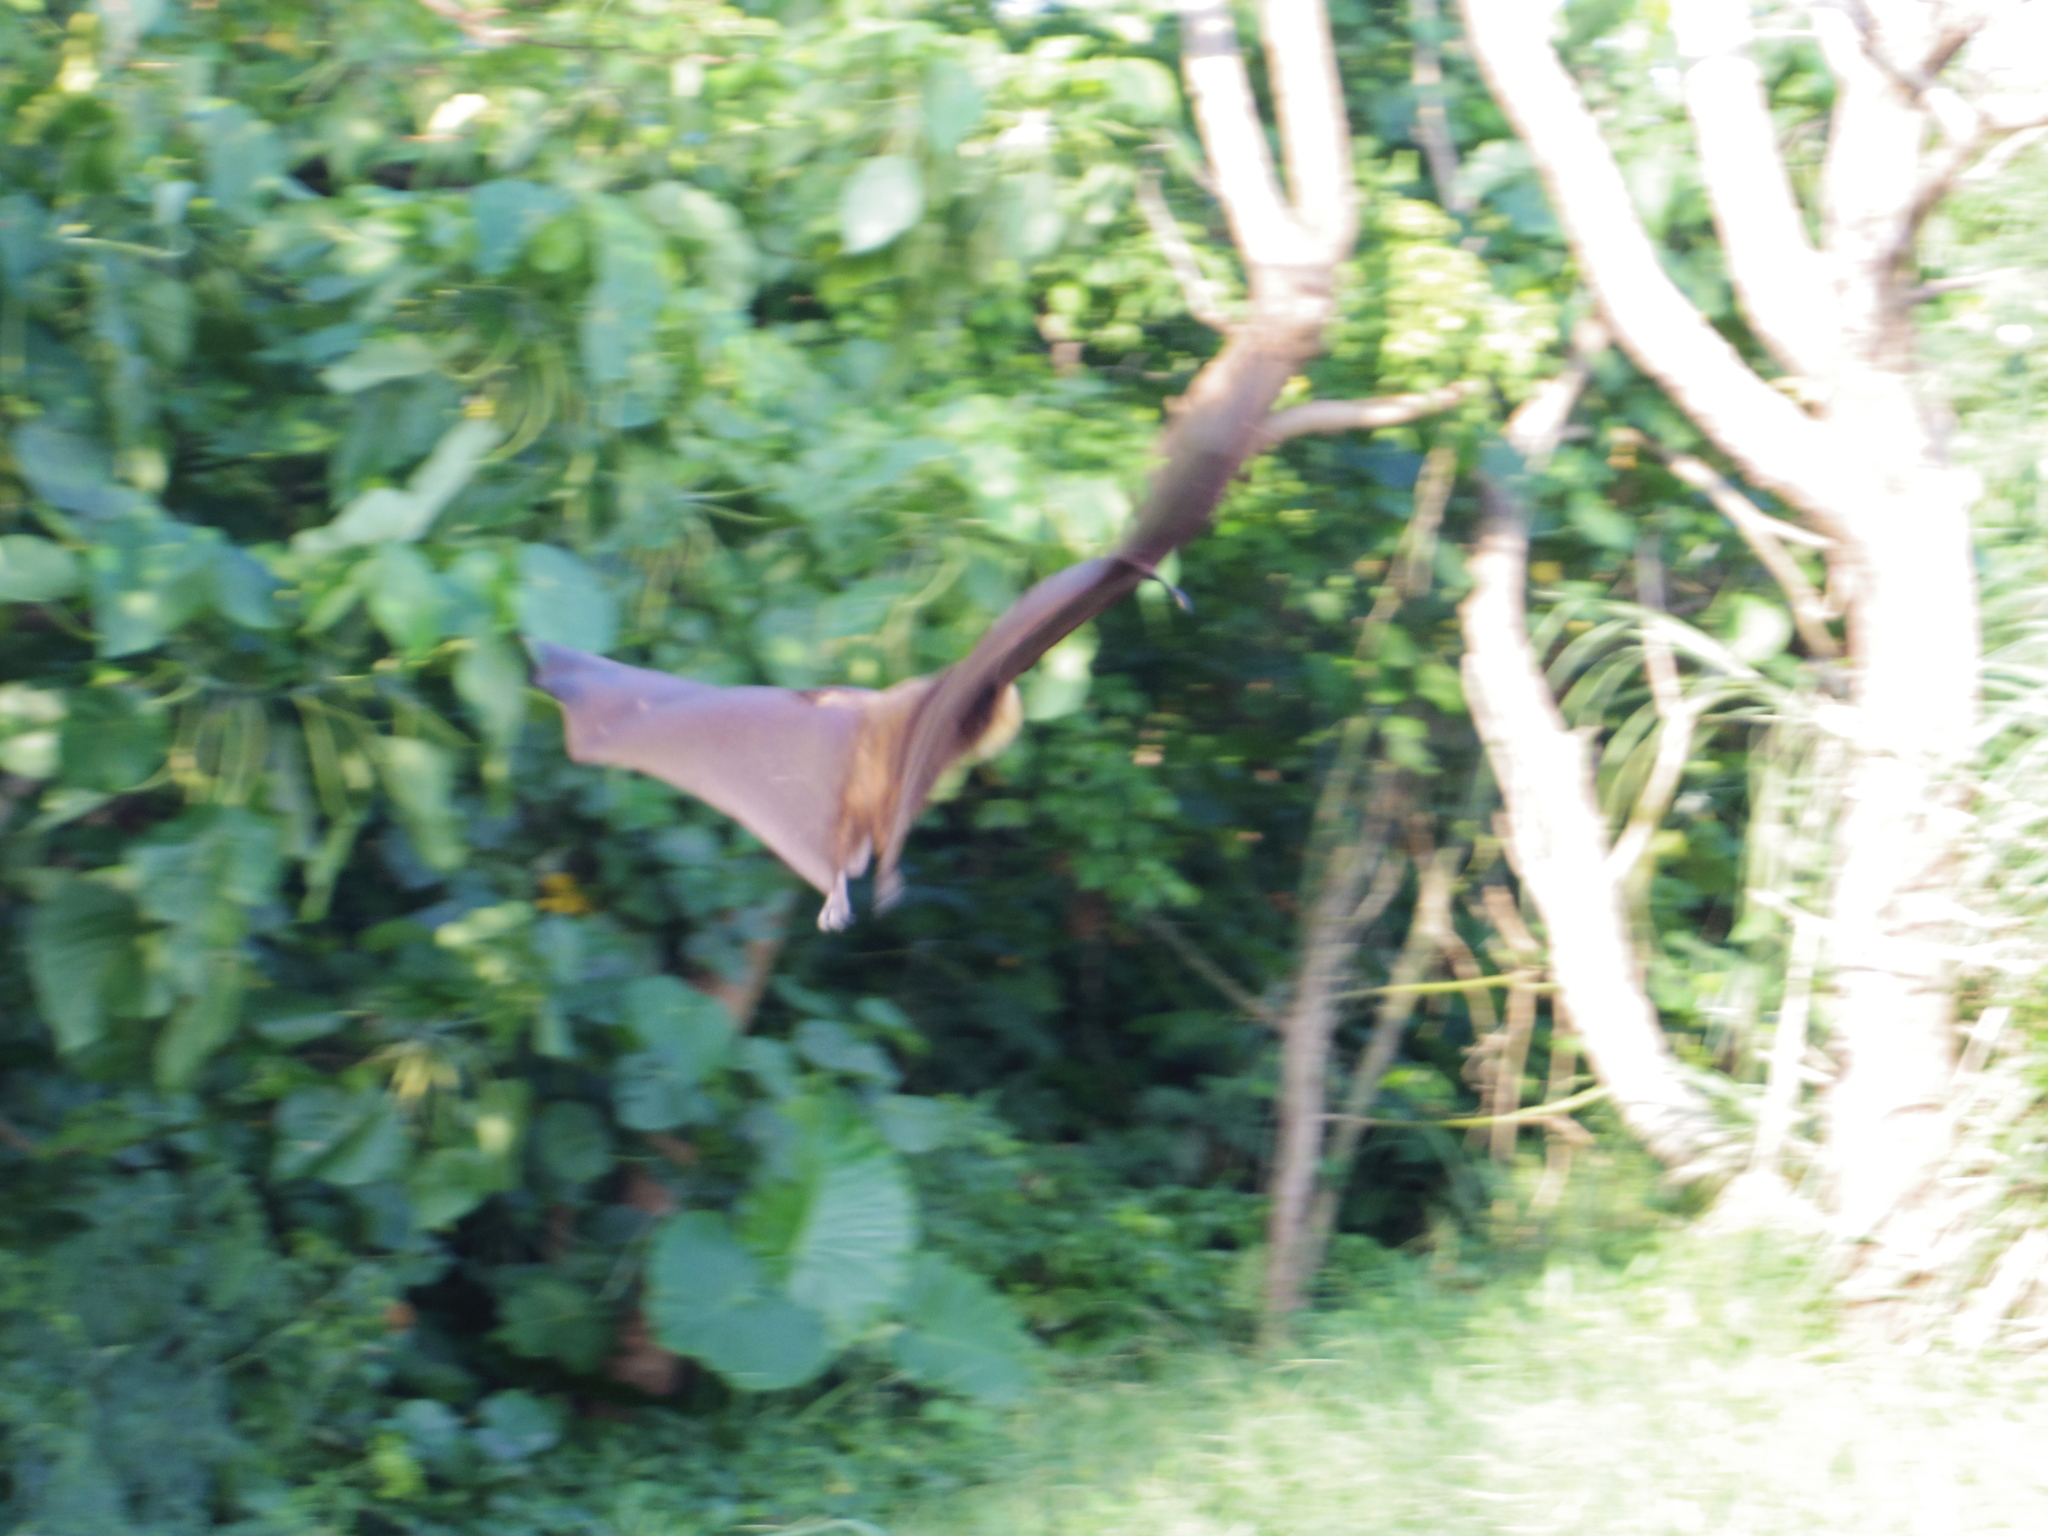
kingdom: Animalia
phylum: Chordata
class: Mammalia
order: Chiroptera
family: Pteropodidae
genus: Pteropus
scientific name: Pteropus dasymallus
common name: Ryukyu flying fox
